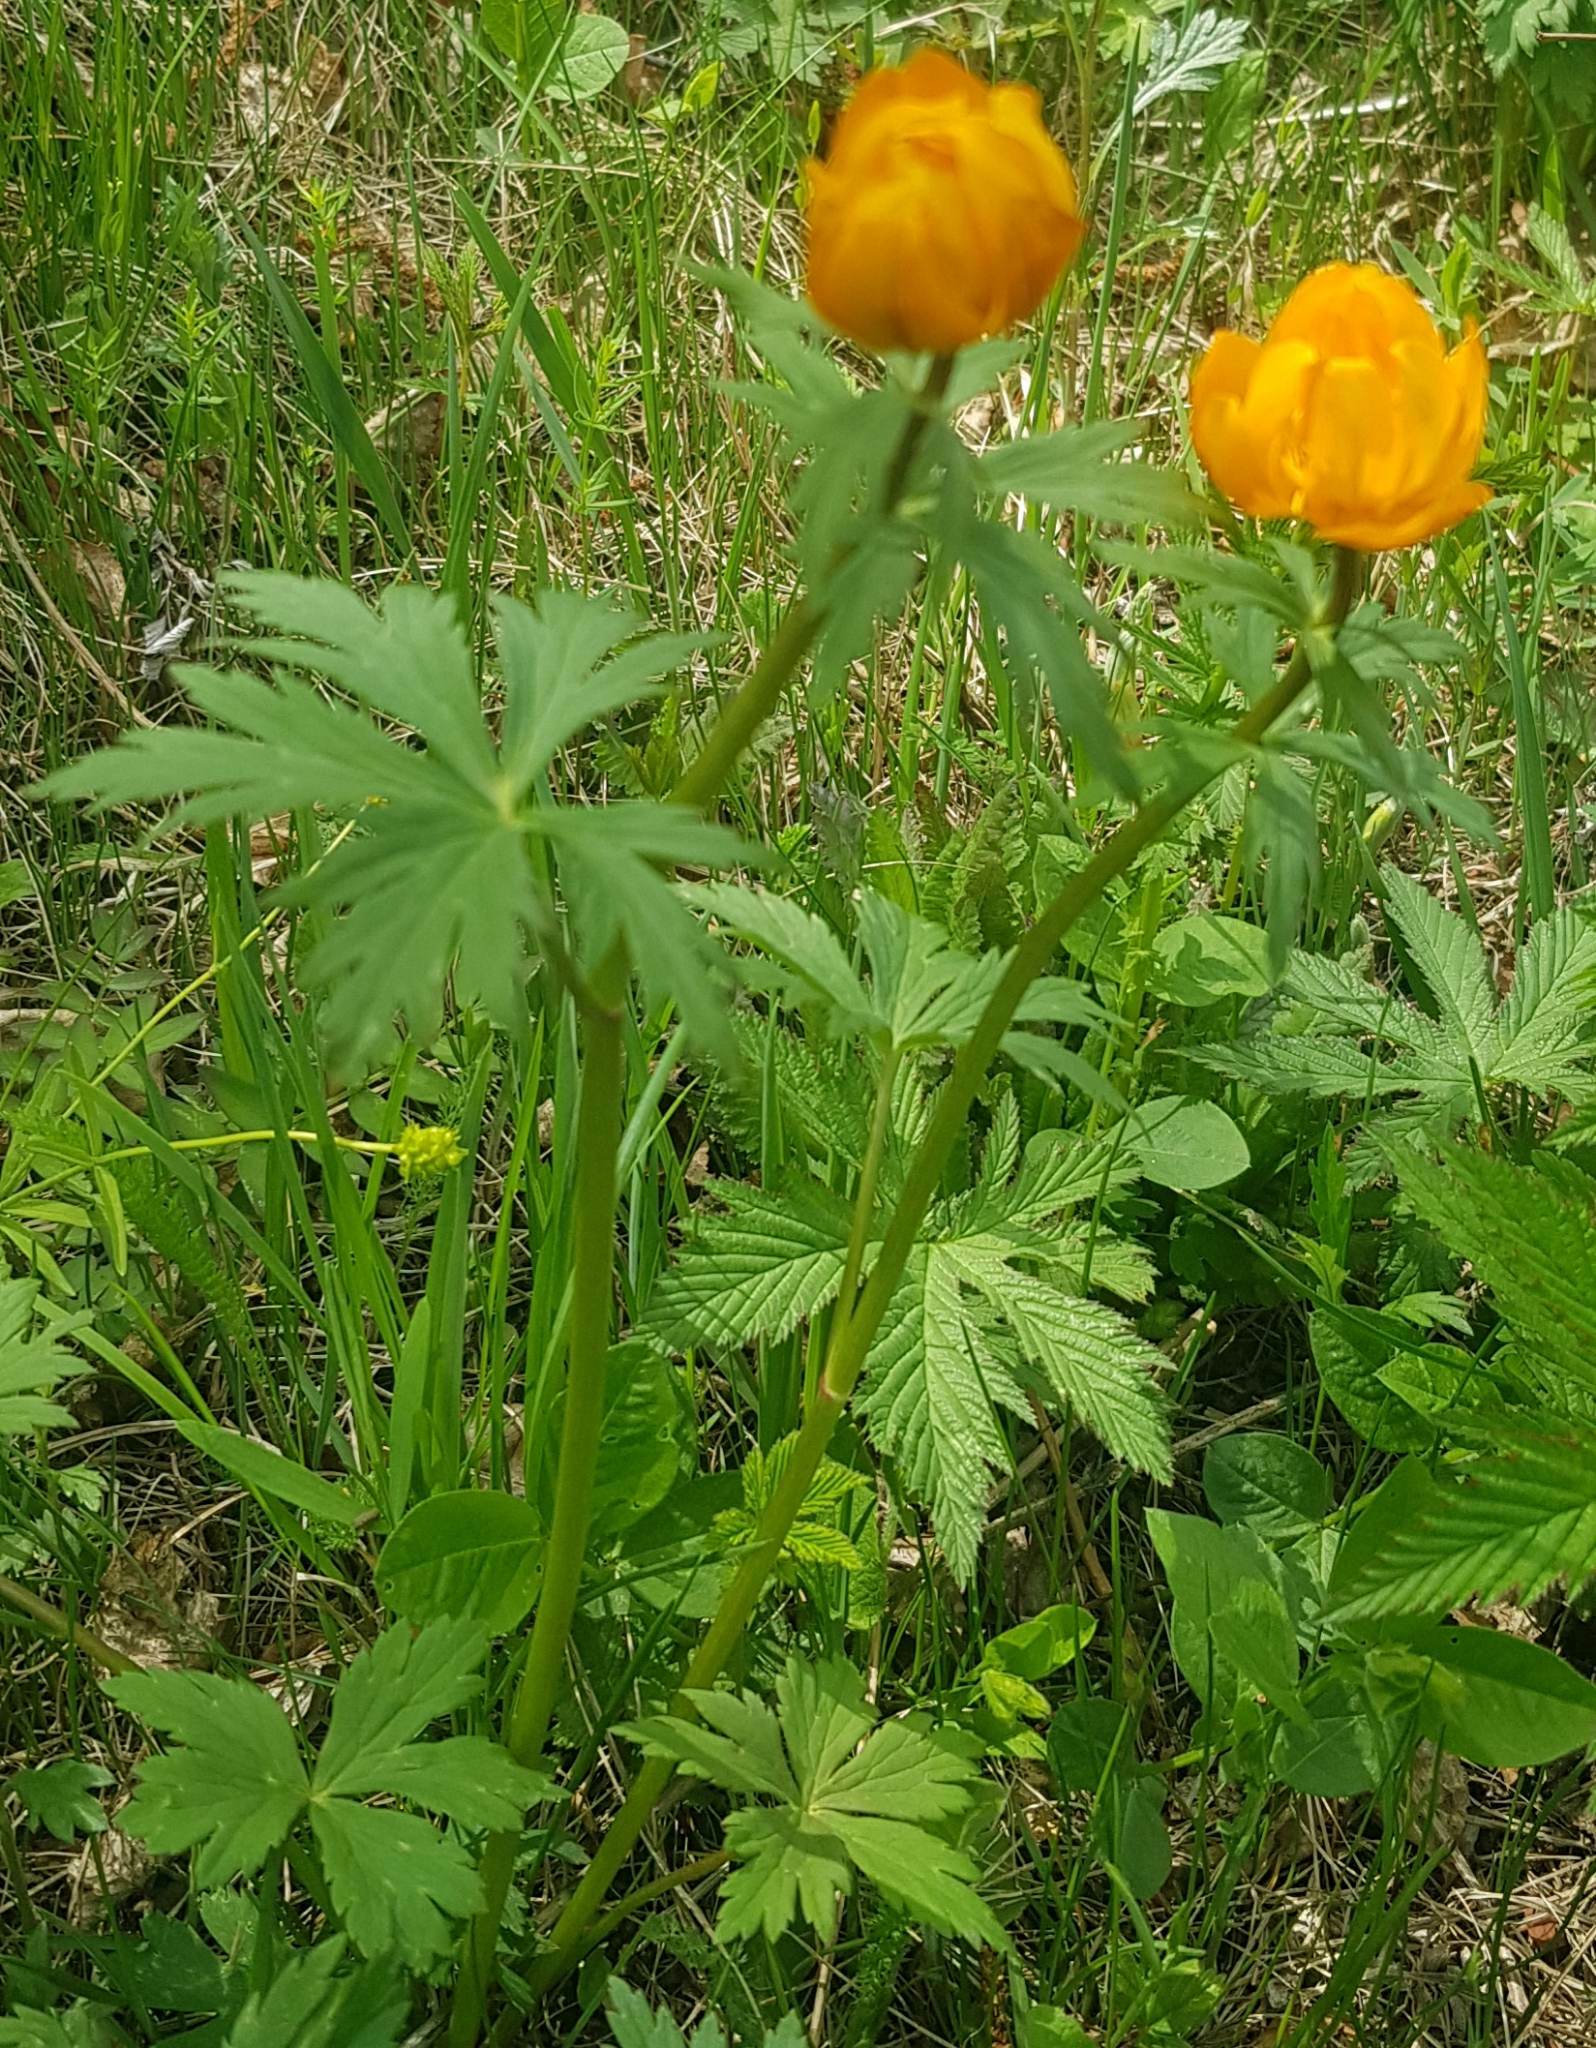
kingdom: Plantae
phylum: Tracheophyta
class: Magnoliopsida
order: Ranunculales
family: Ranunculaceae
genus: Trollius
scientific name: Trollius asiaticus
